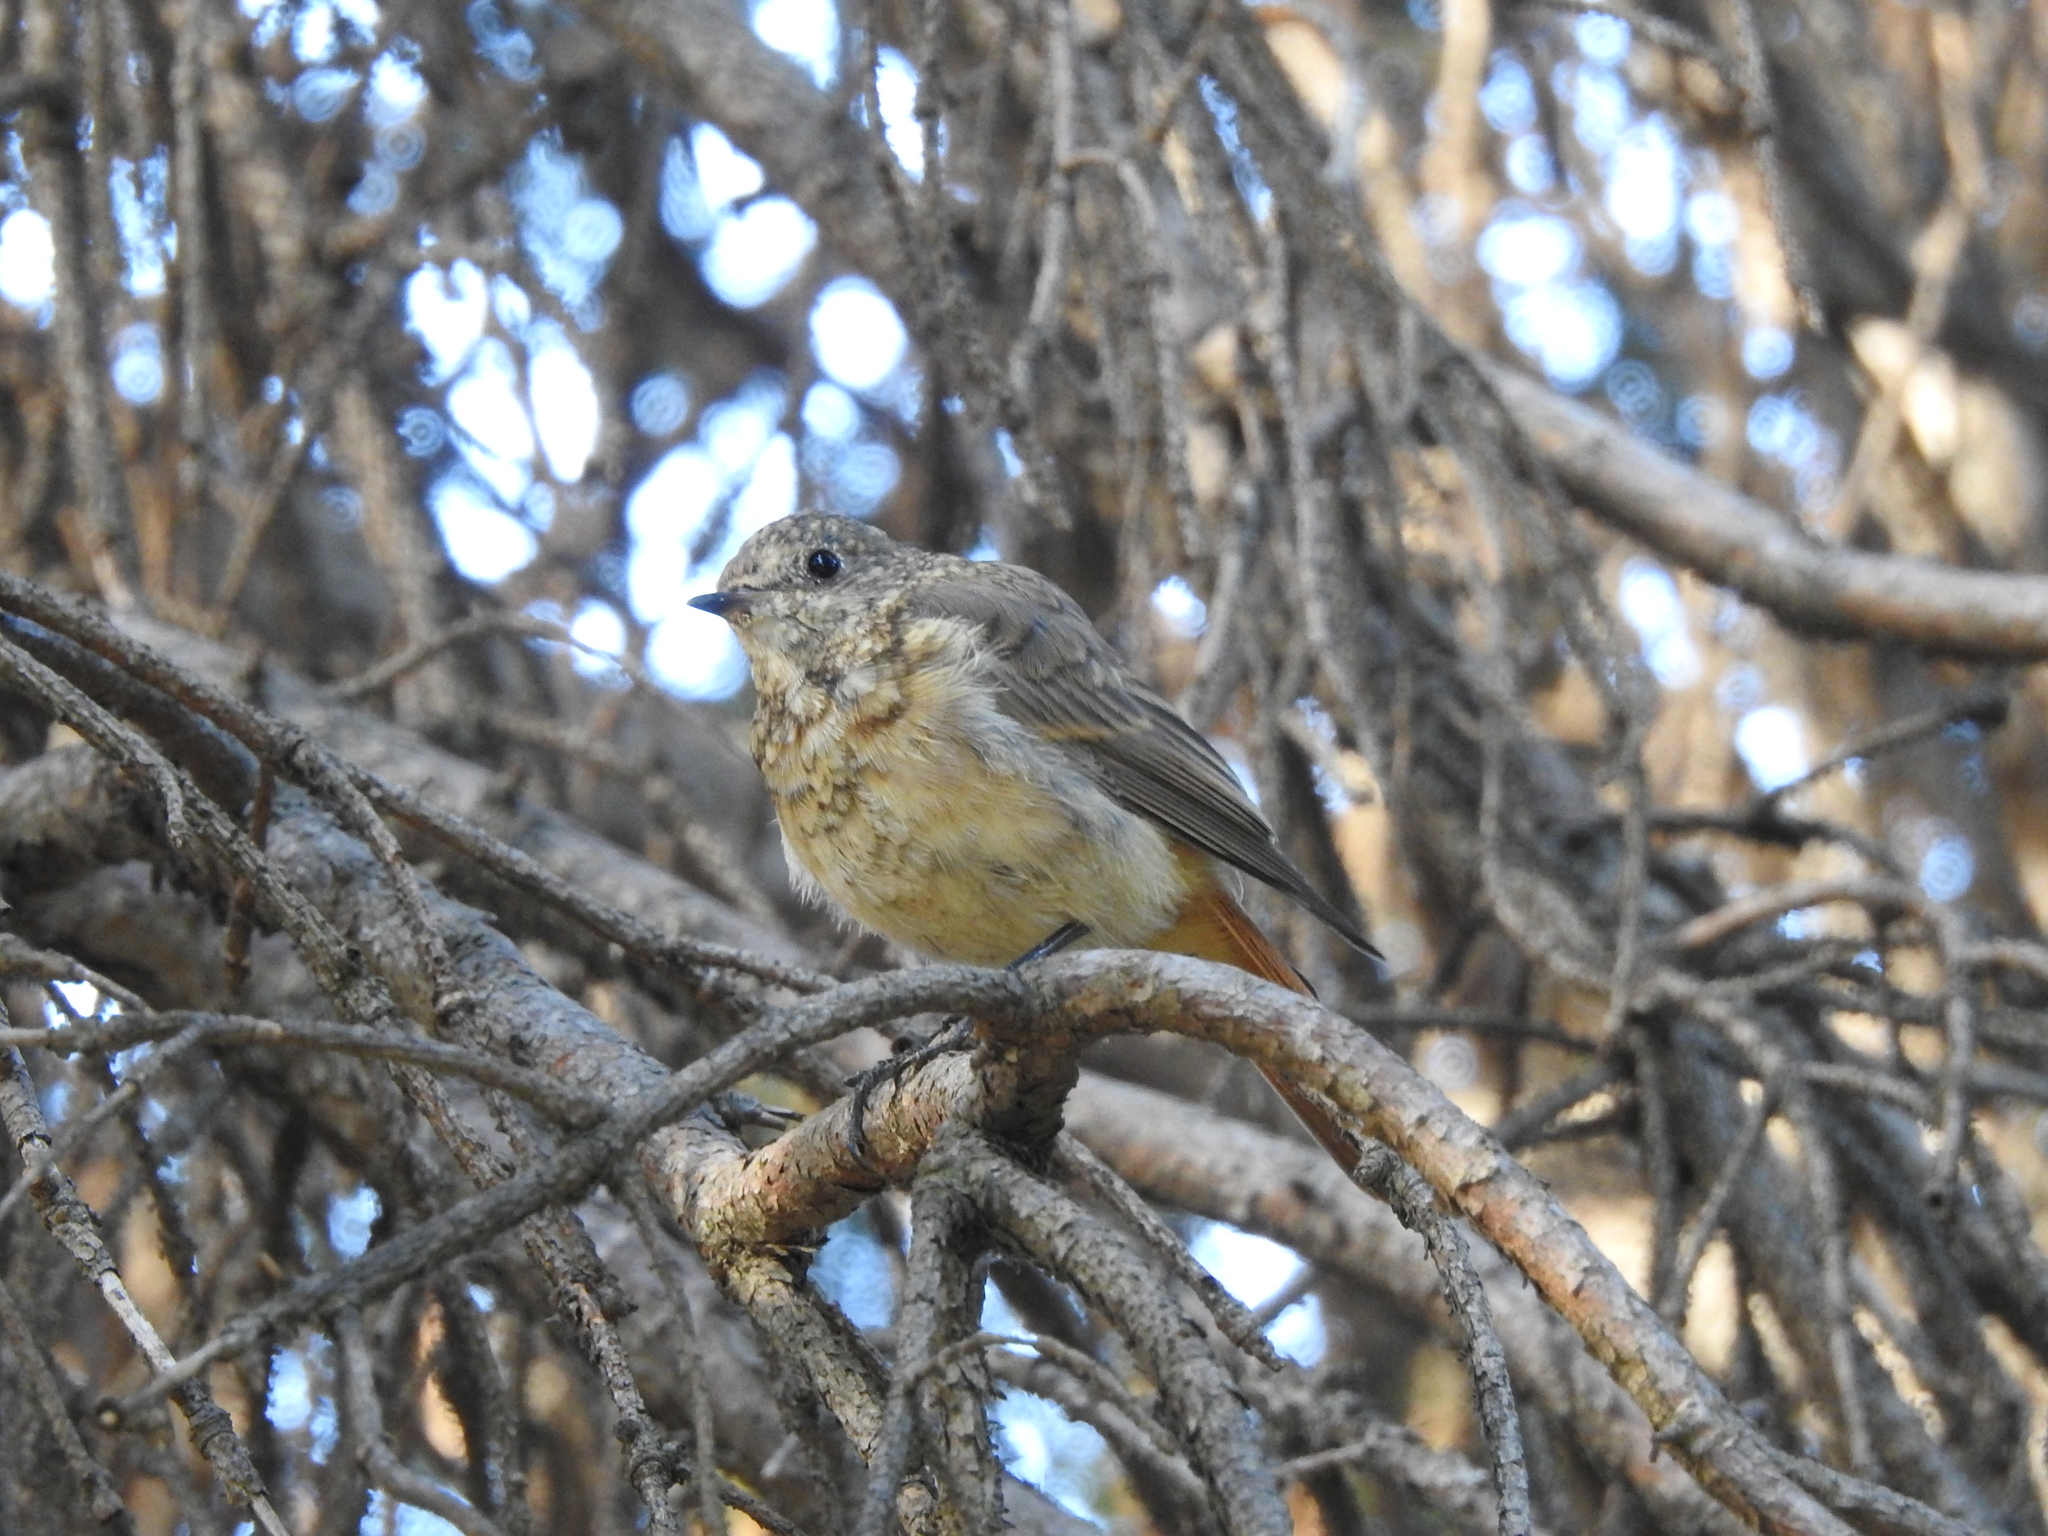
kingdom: Animalia
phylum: Chordata
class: Aves
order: Passeriformes
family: Muscicapidae
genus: Phoenicurus
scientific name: Phoenicurus phoenicurus
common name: Common redstart
